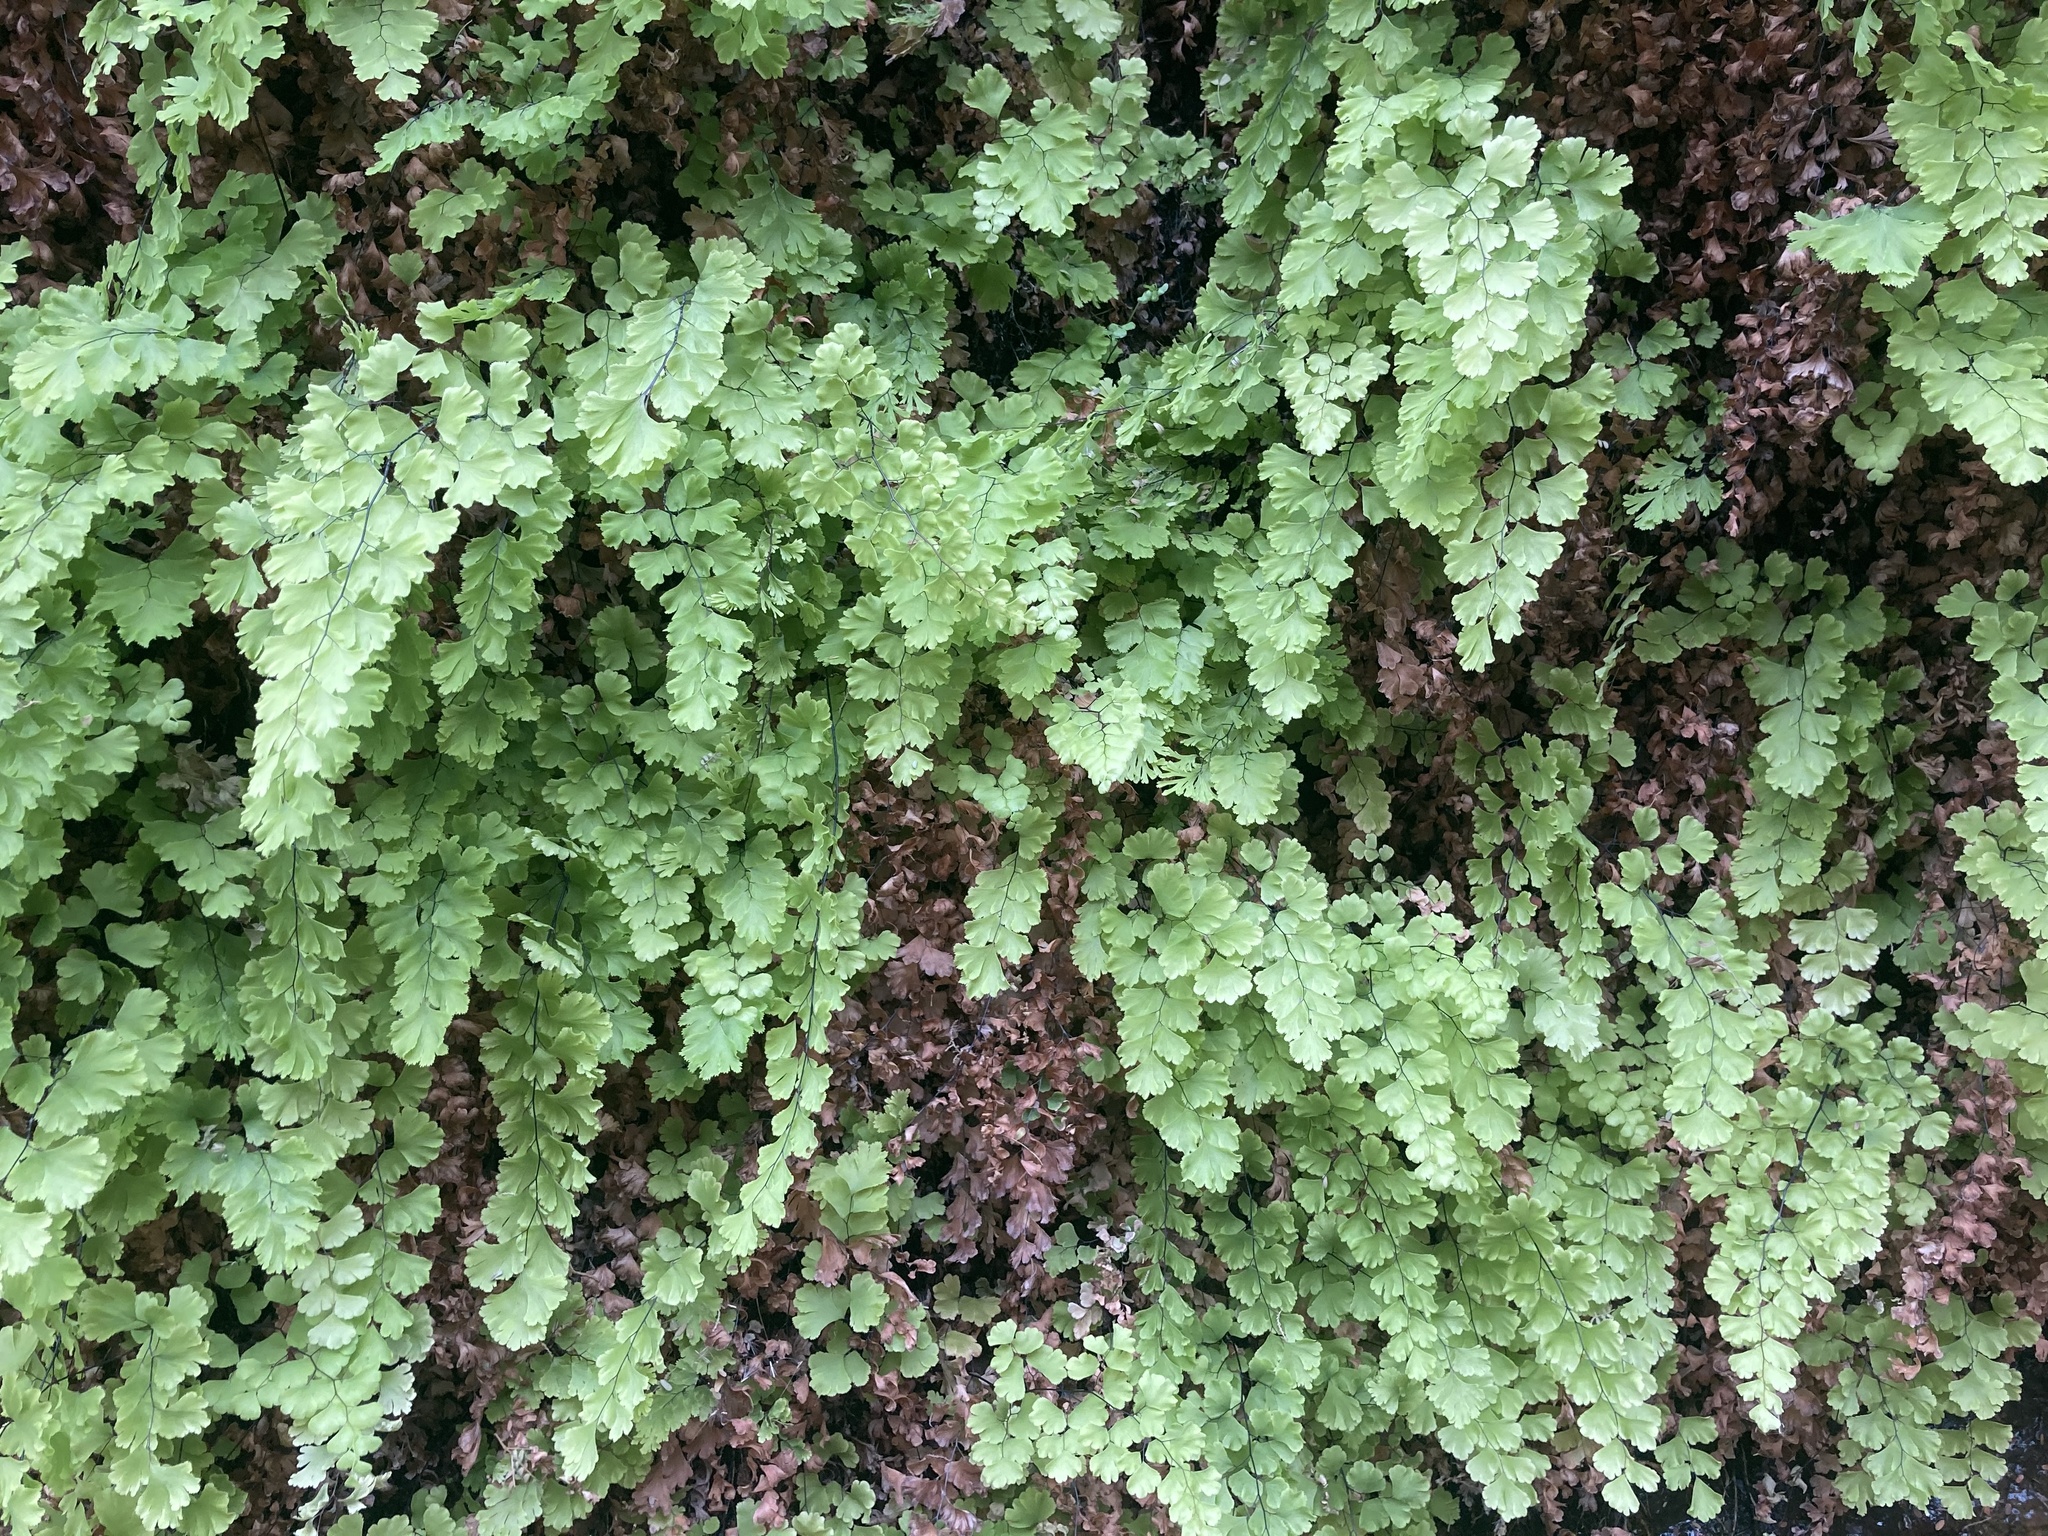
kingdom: Plantae
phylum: Tracheophyta
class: Polypodiopsida
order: Polypodiales
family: Pteridaceae
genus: Adiantum
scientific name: Adiantum capillus-veneris
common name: Maidenhair fern
